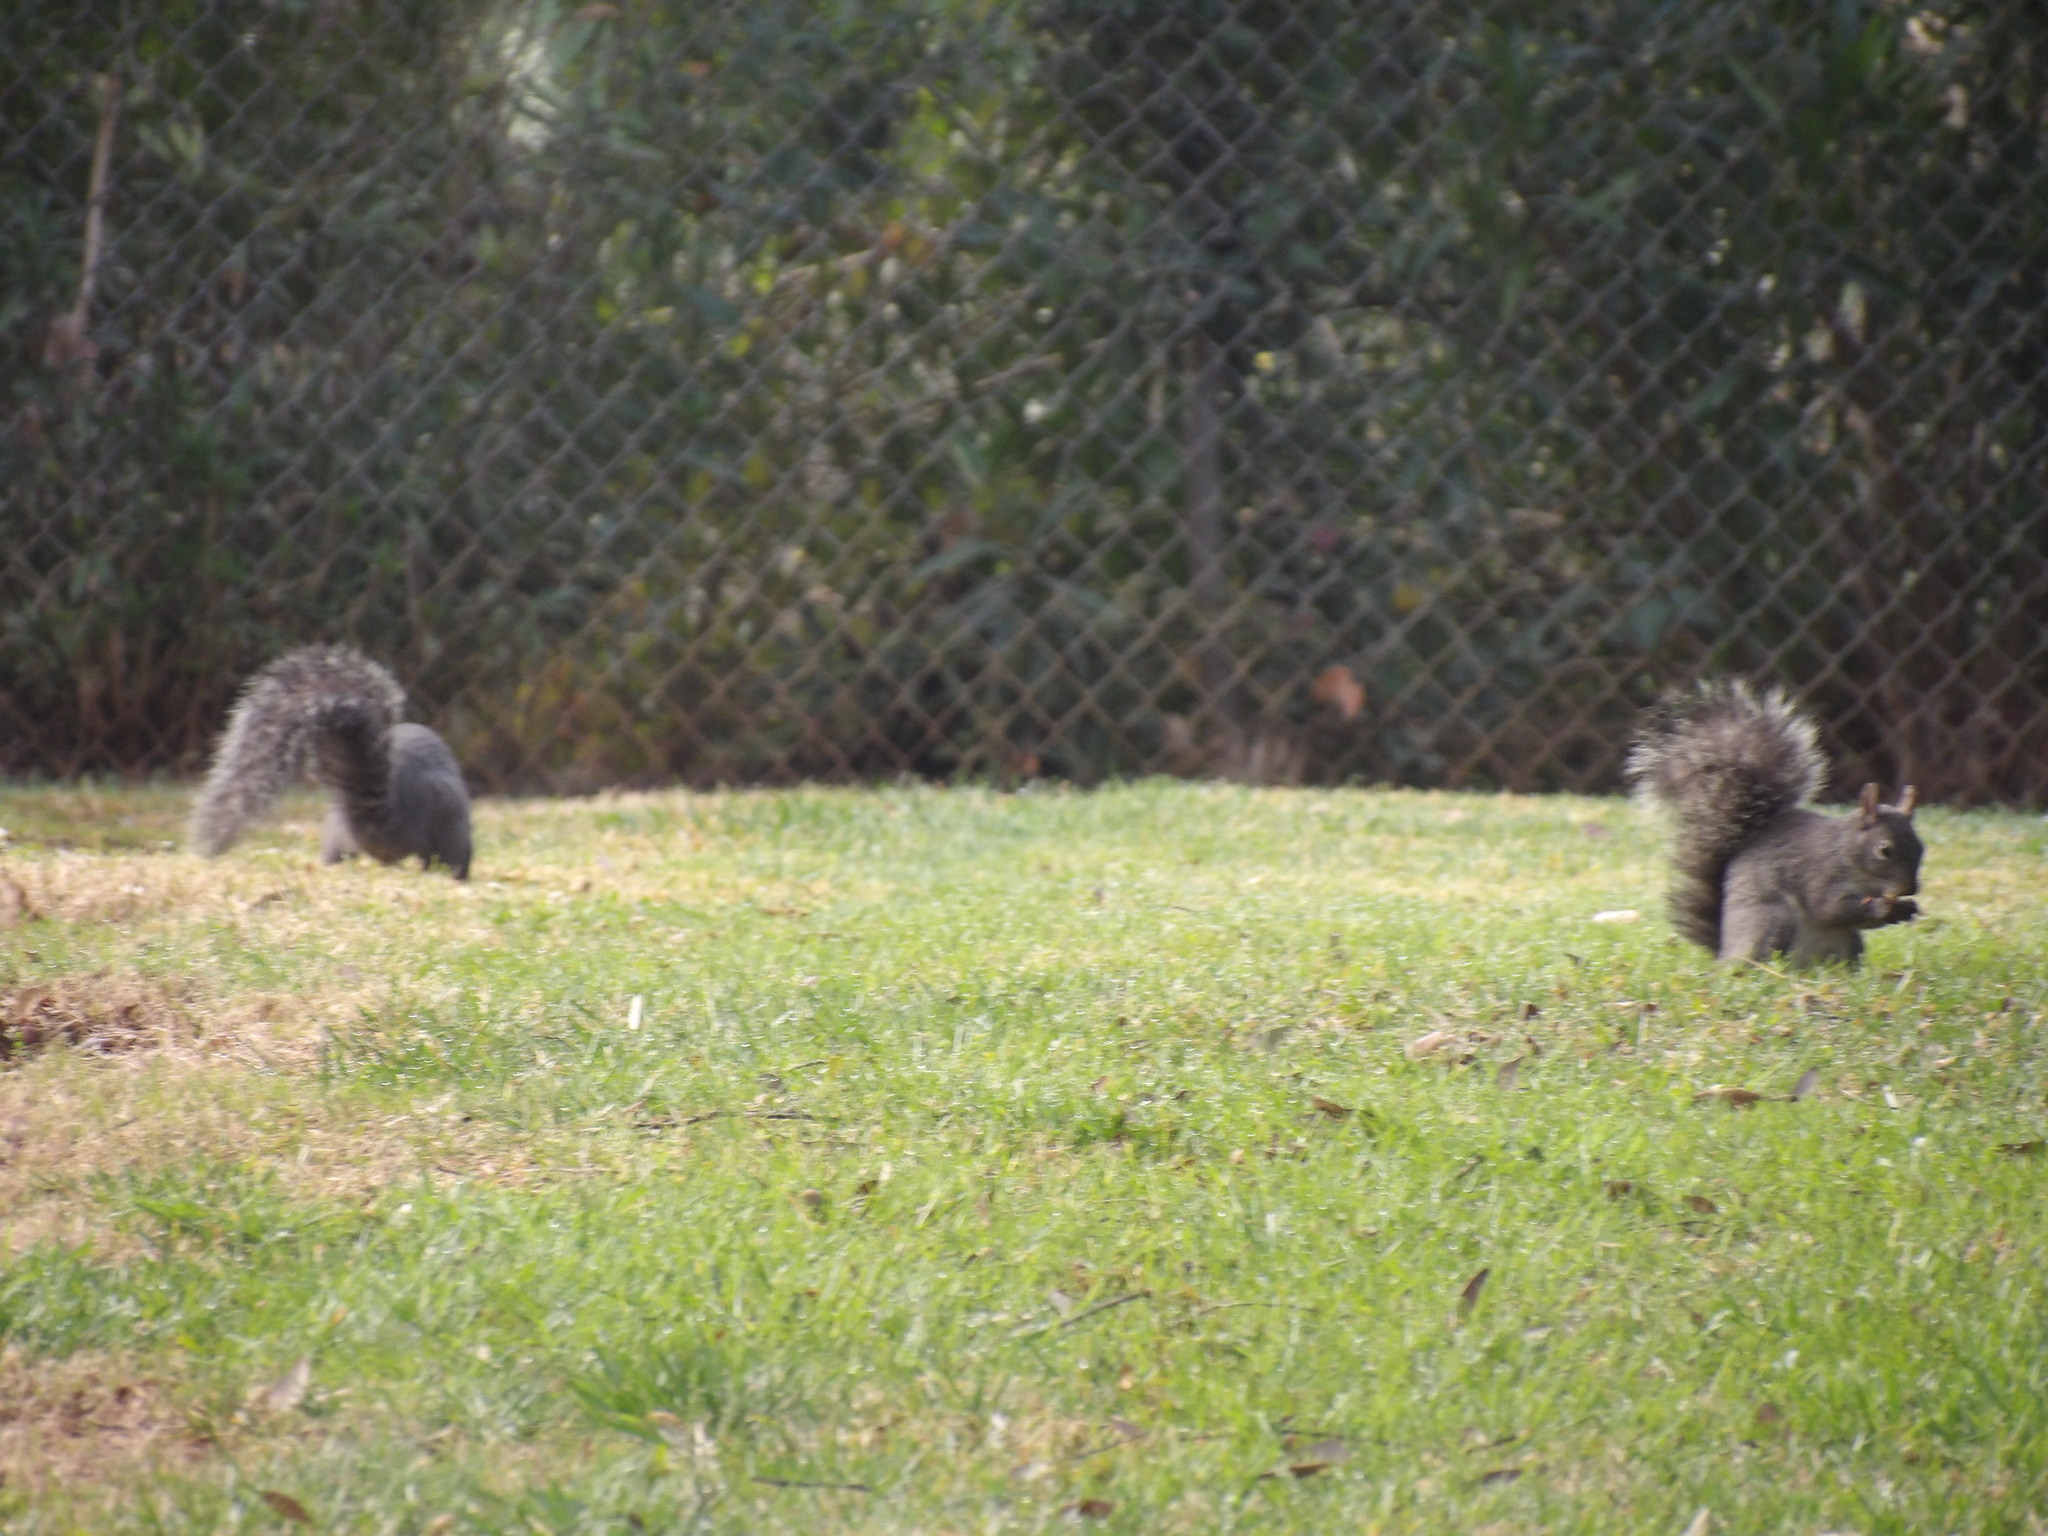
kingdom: Animalia
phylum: Chordata
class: Mammalia
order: Rodentia
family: Sciuridae
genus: Sciurus
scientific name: Sciurus griseus
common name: Western gray squirrel
